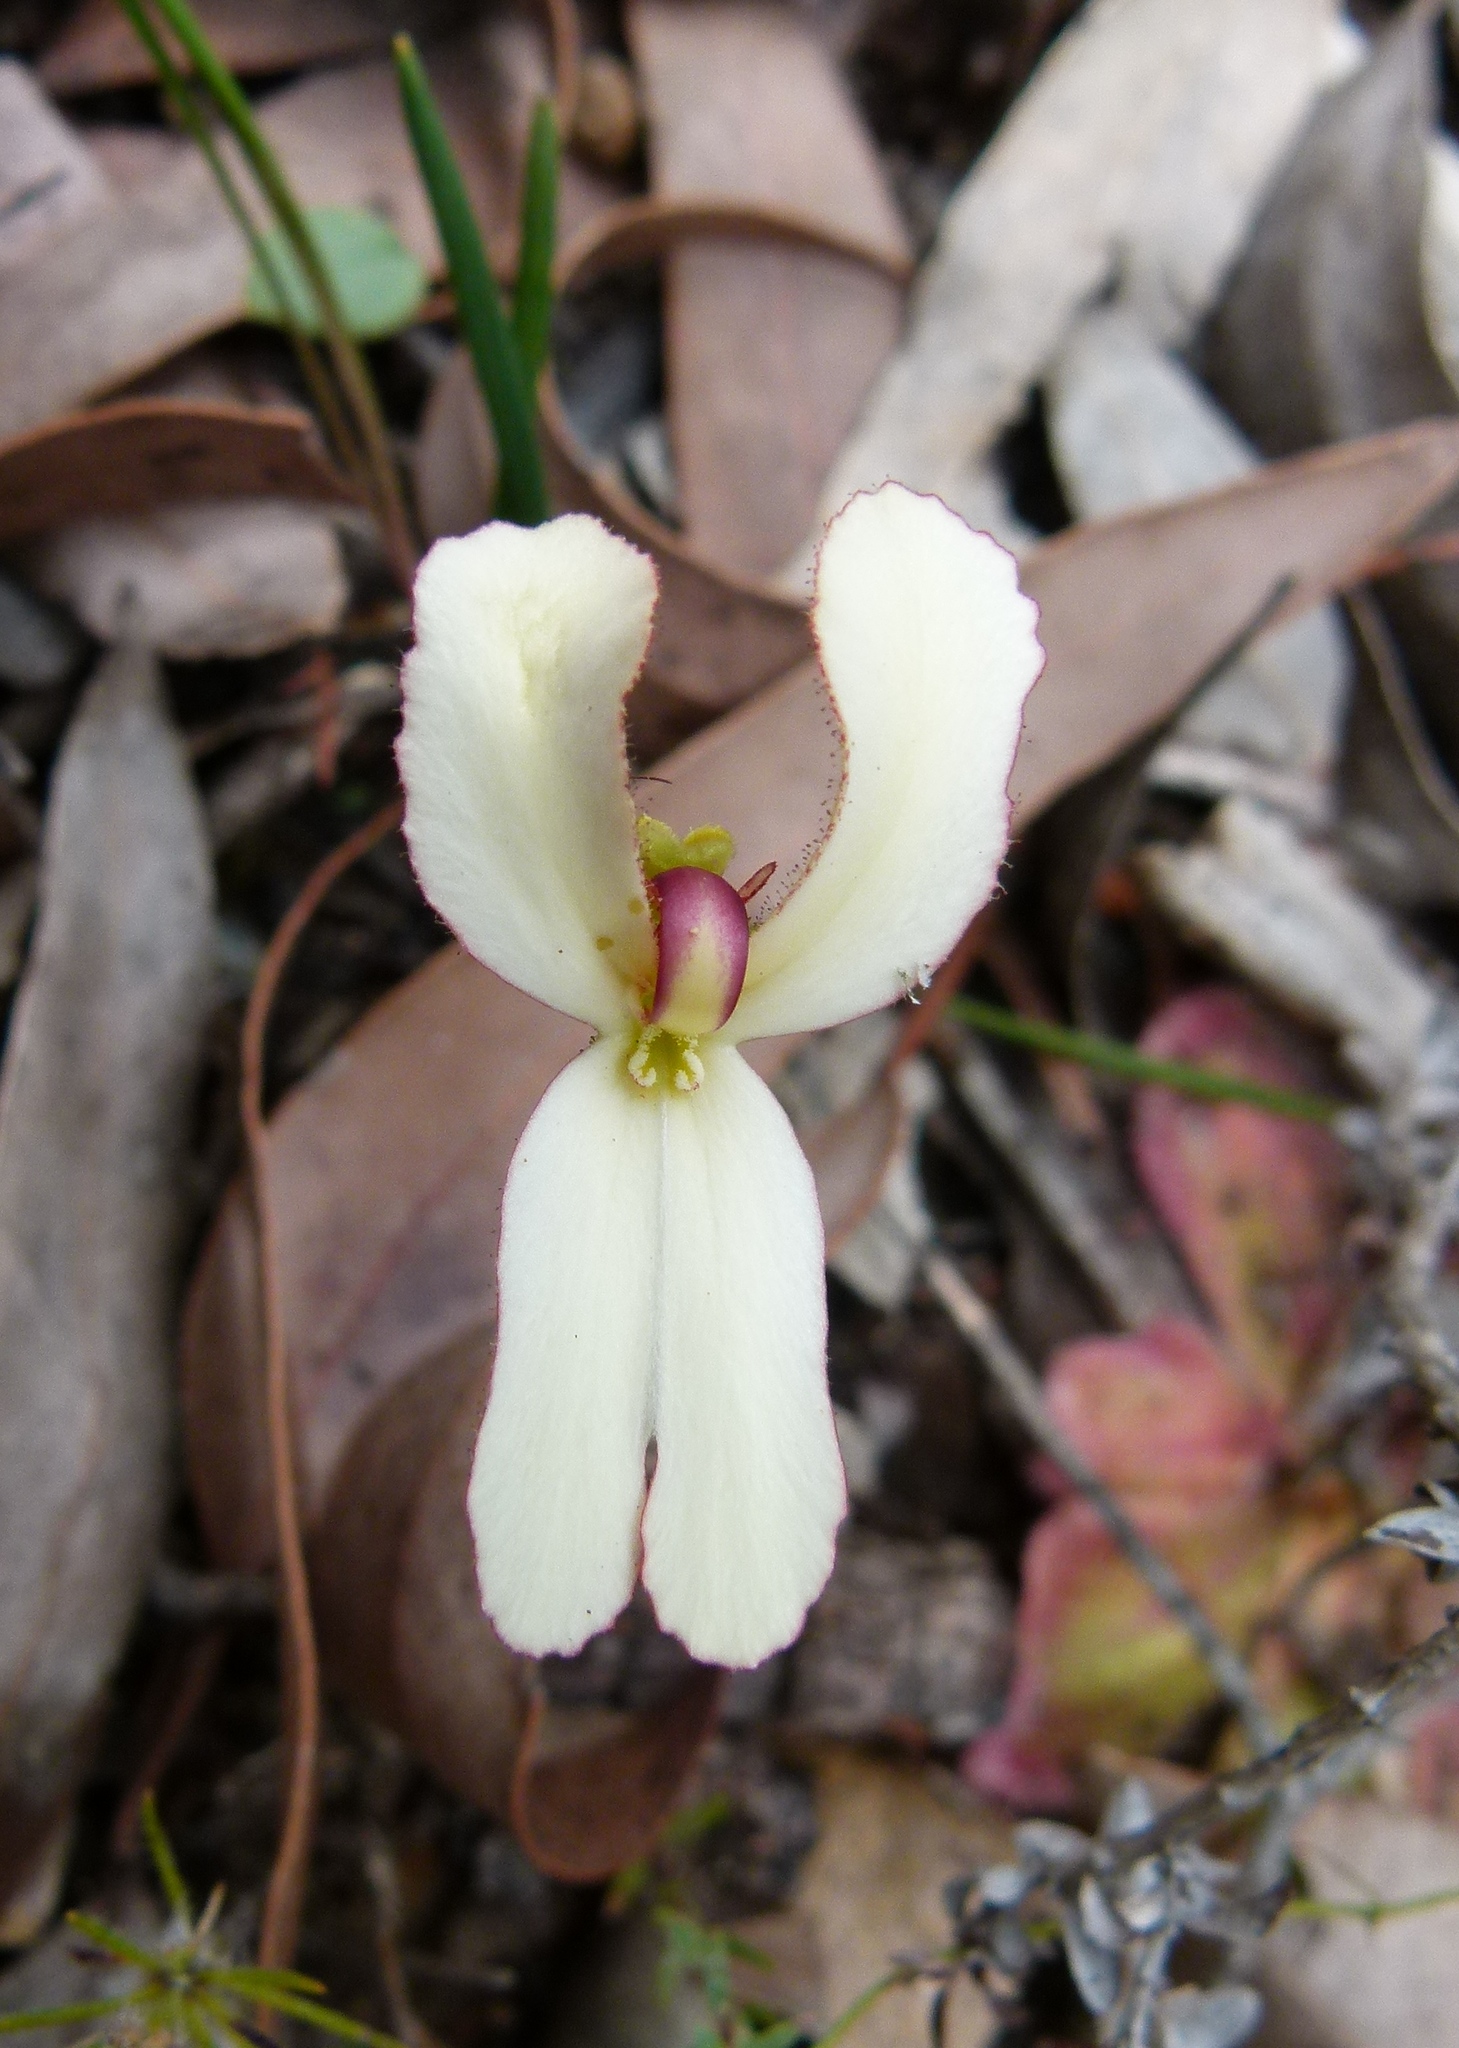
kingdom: Plantae
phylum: Tracheophyta
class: Magnoliopsida
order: Asterales
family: Stylidiaceae
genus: Stylidium
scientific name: Stylidium schoenoides
